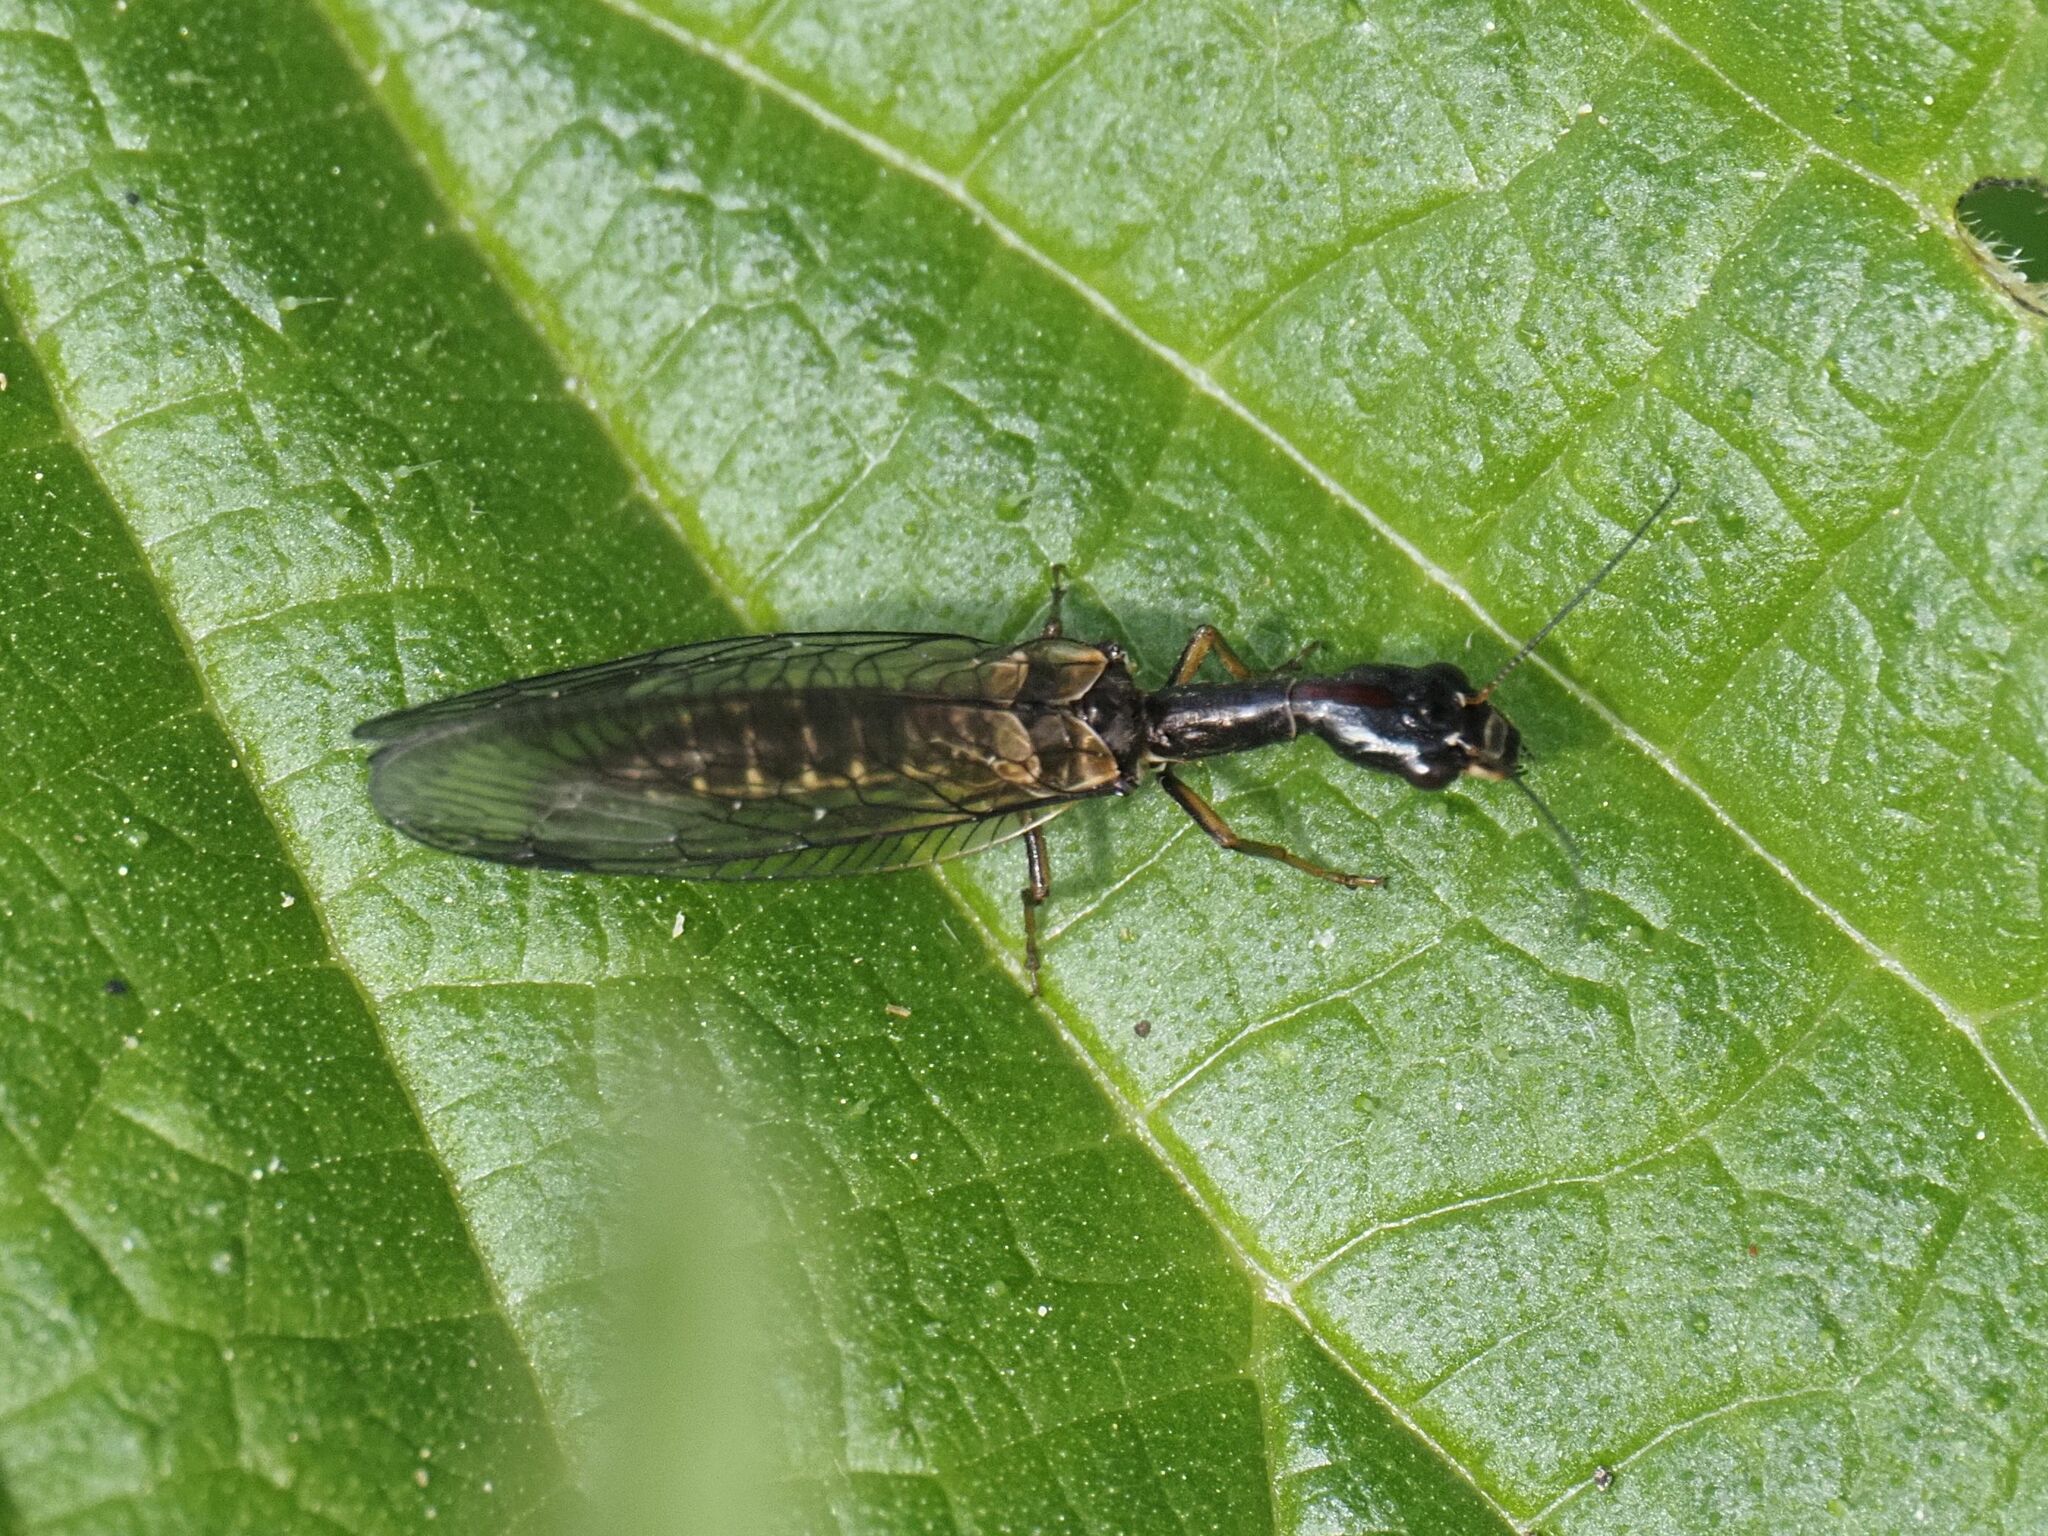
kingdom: Animalia
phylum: Arthropoda
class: Insecta
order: Raphidioptera
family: Raphidiidae
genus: Phaeostigma
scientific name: Phaeostigma notatum
